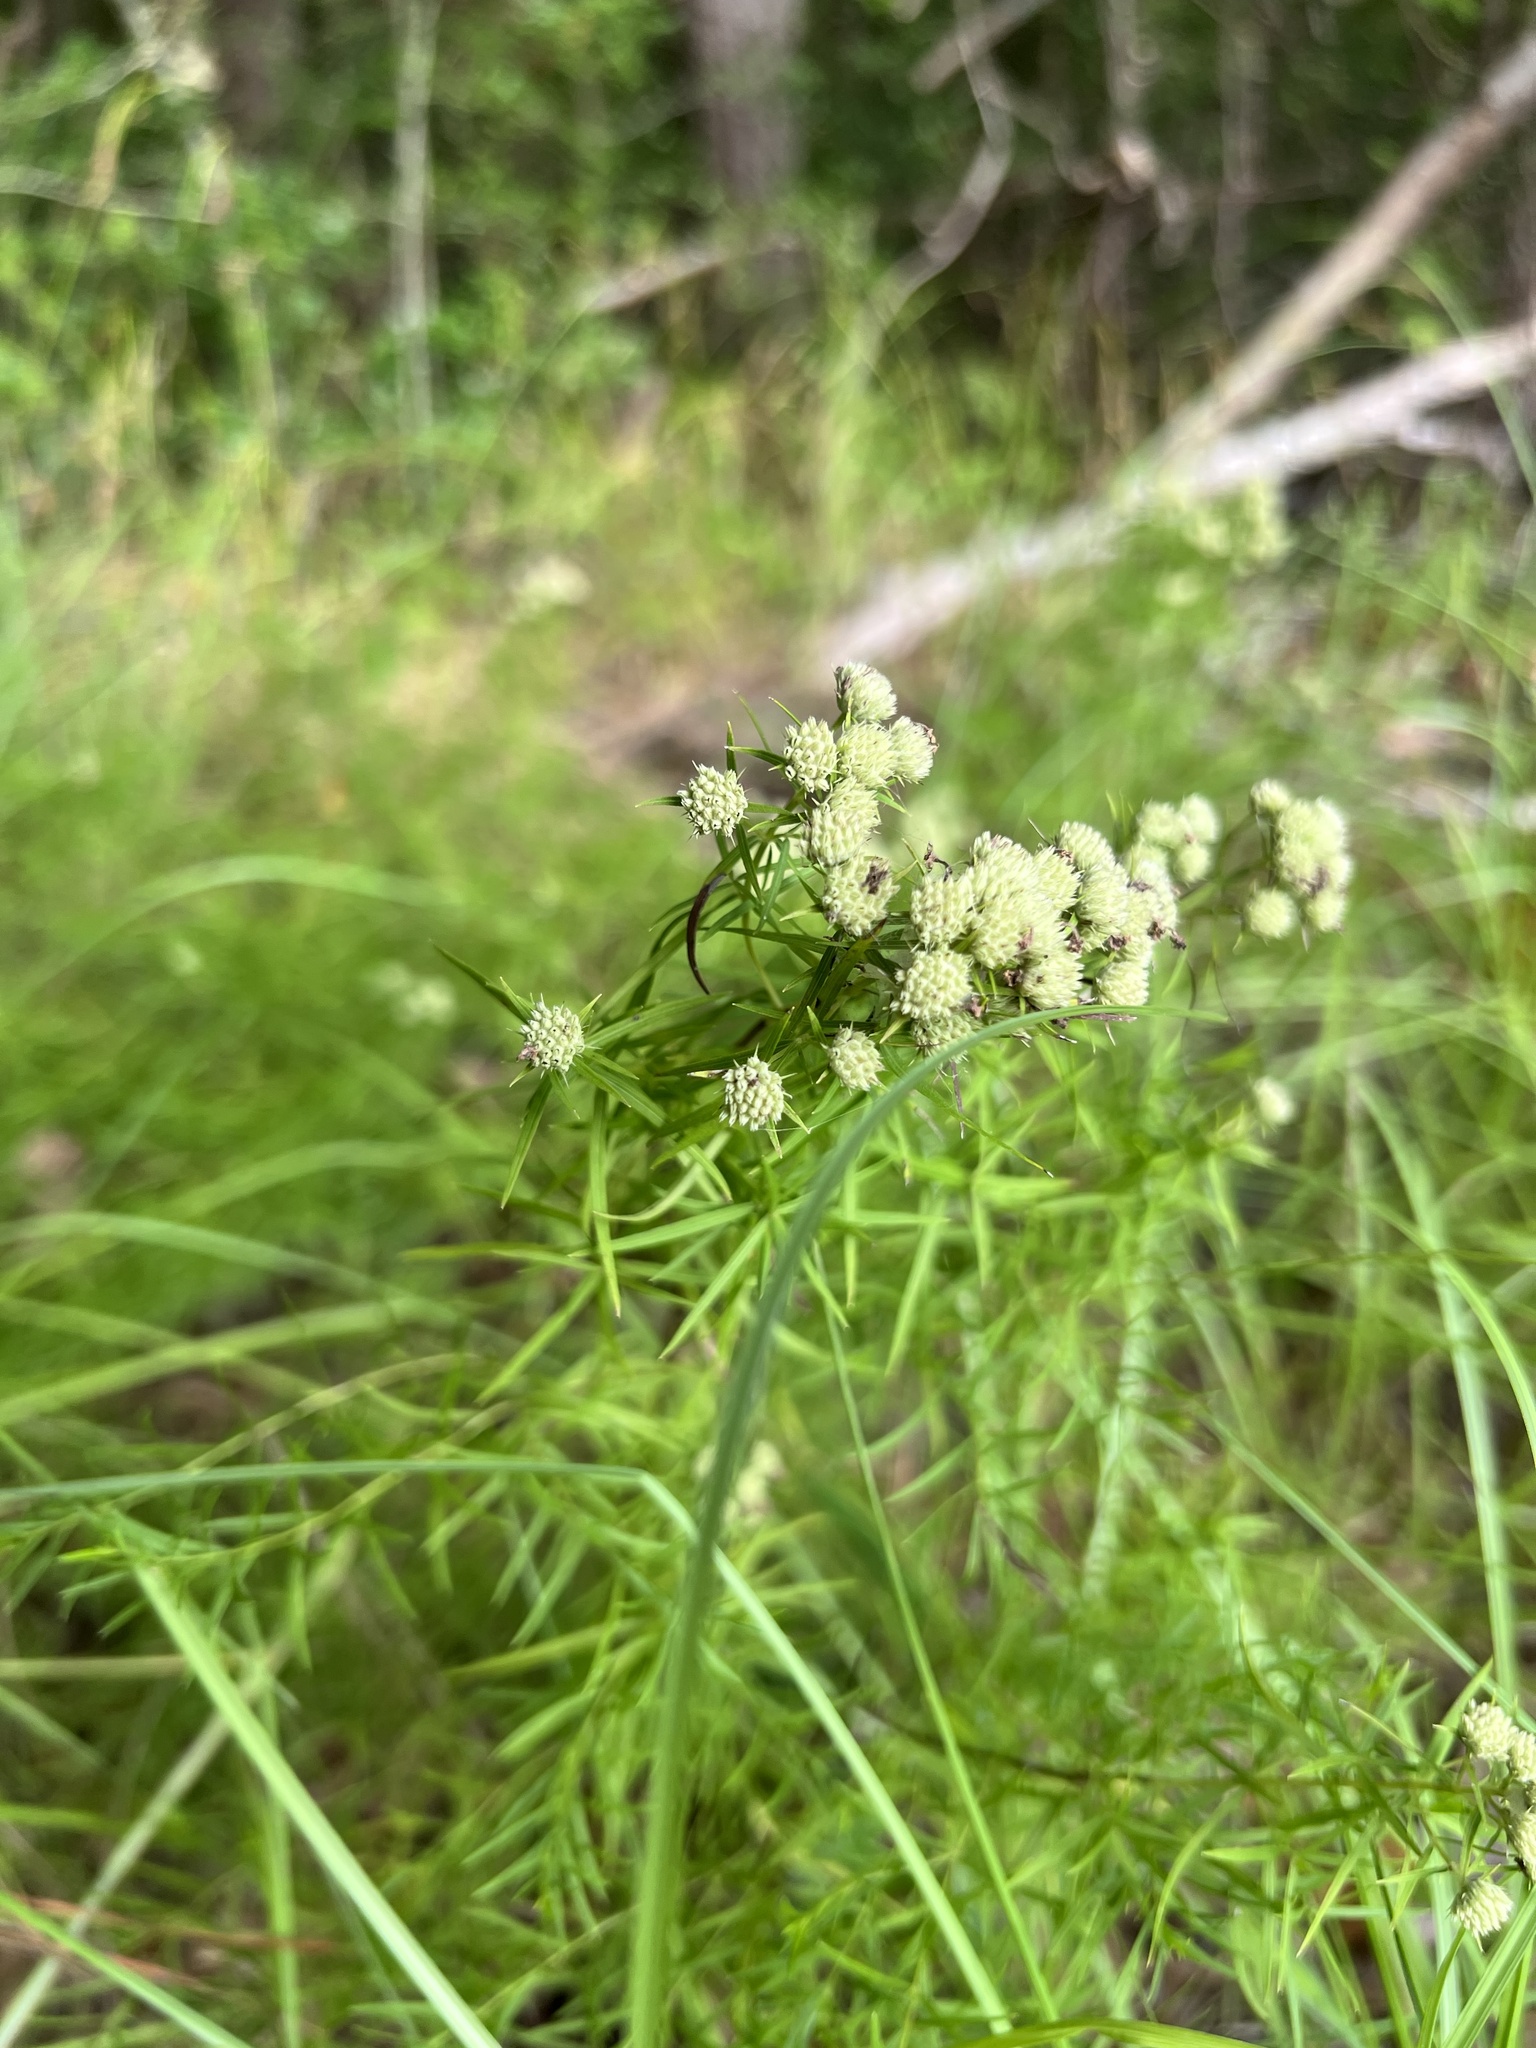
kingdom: Plantae
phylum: Tracheophyta
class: Magnoliopsida
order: Lamiales
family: Lamiaceae
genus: Pycnanthemum
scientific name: Pycnanthemum tenuifolium
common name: Narrow-leaf mountain-mint
